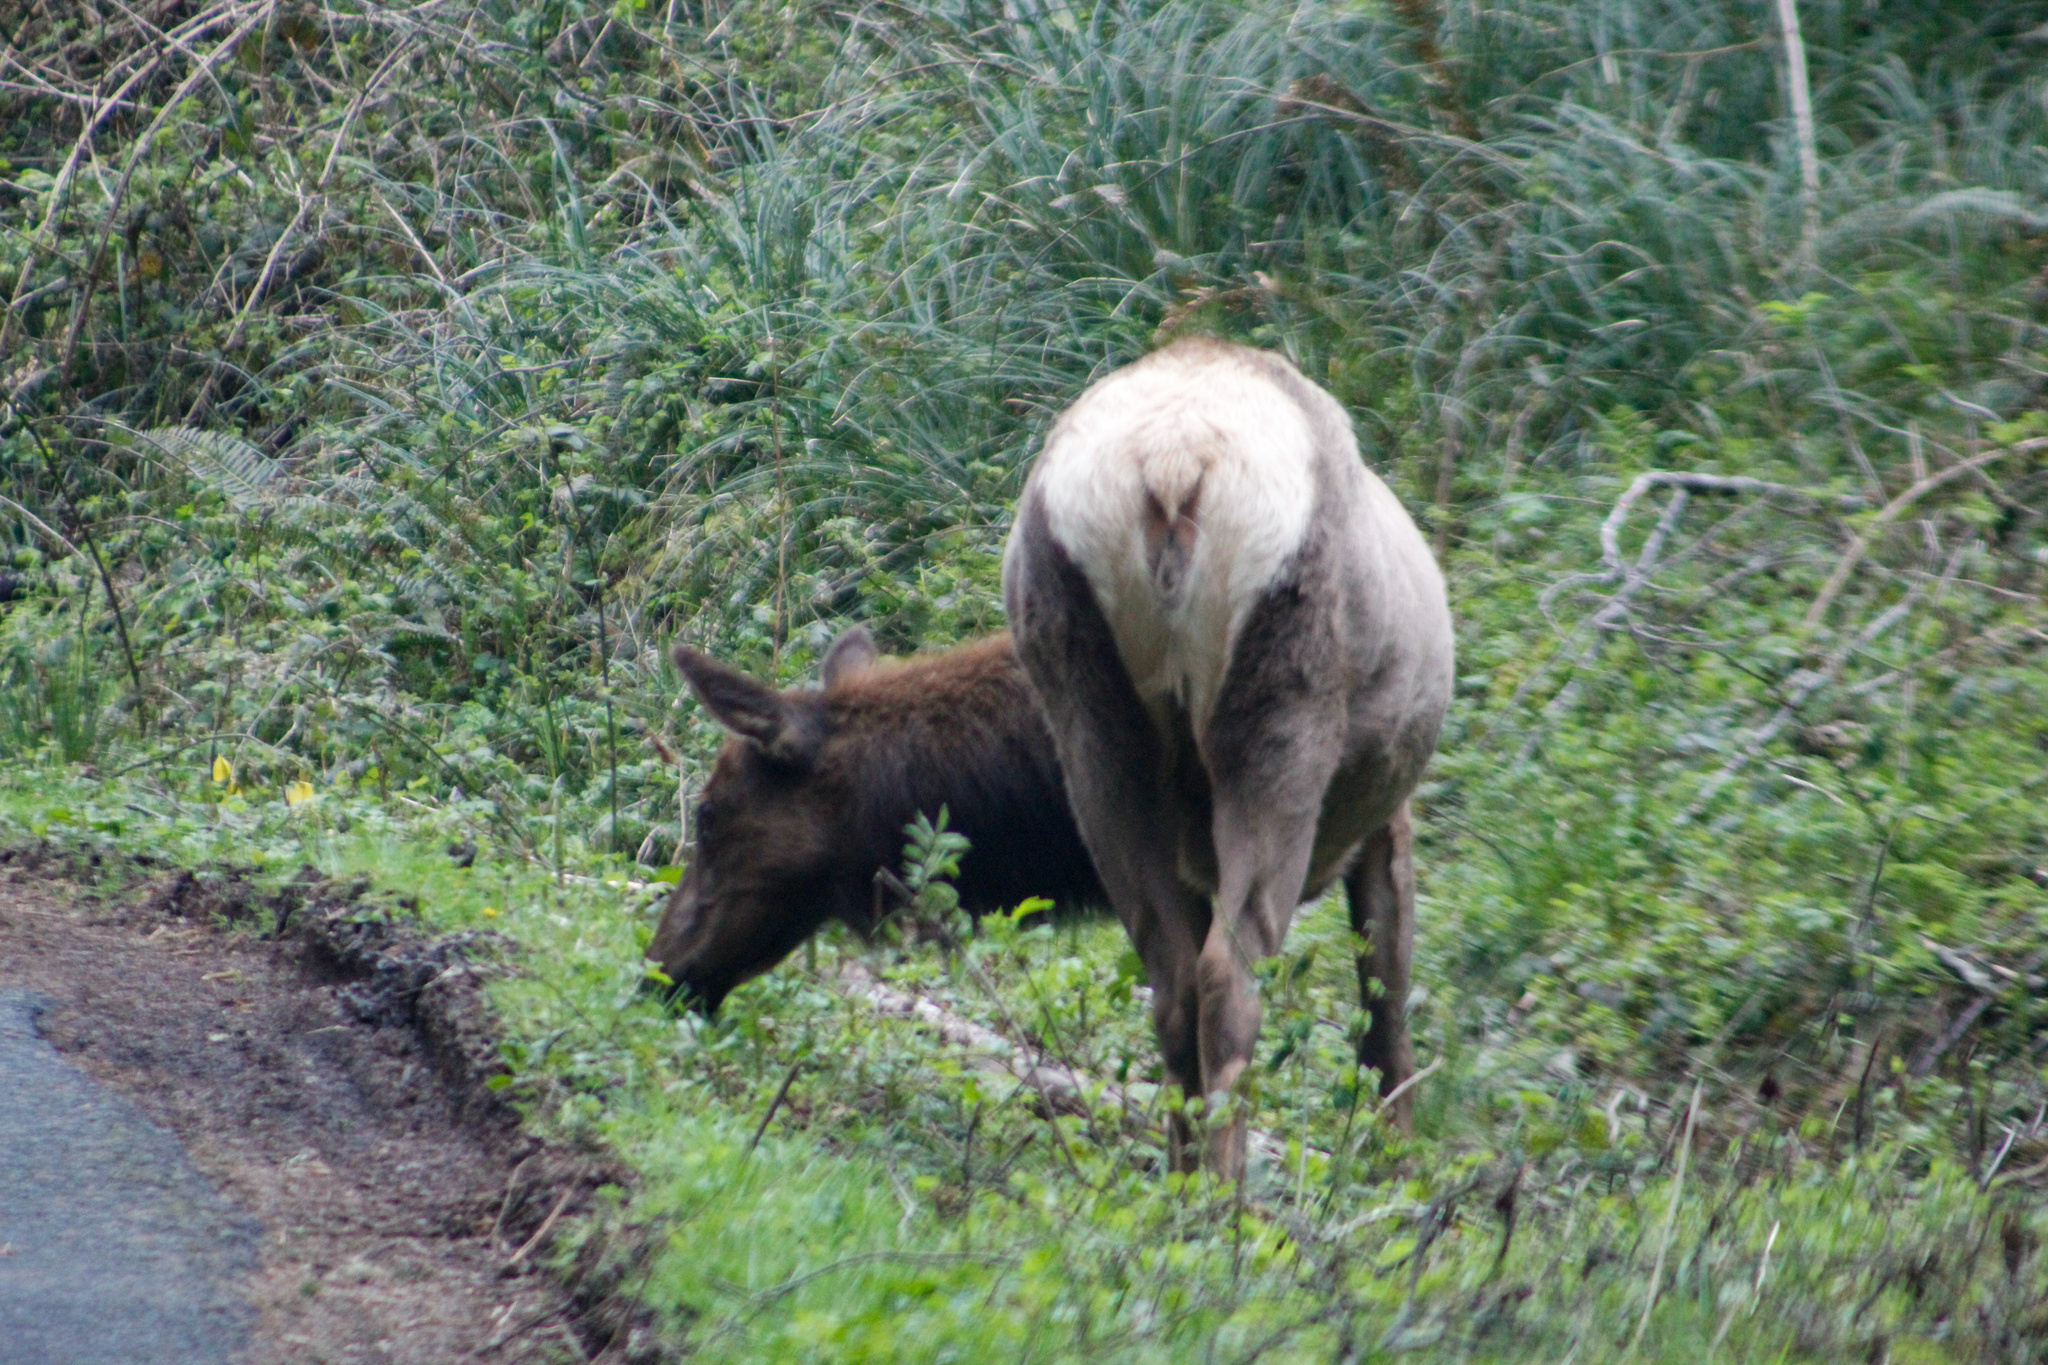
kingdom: Animalia
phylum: Chordata
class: Mammalia
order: Artiodactyla
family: Cervidae
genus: Cervus
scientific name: Cervus elaphus
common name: Red deer
